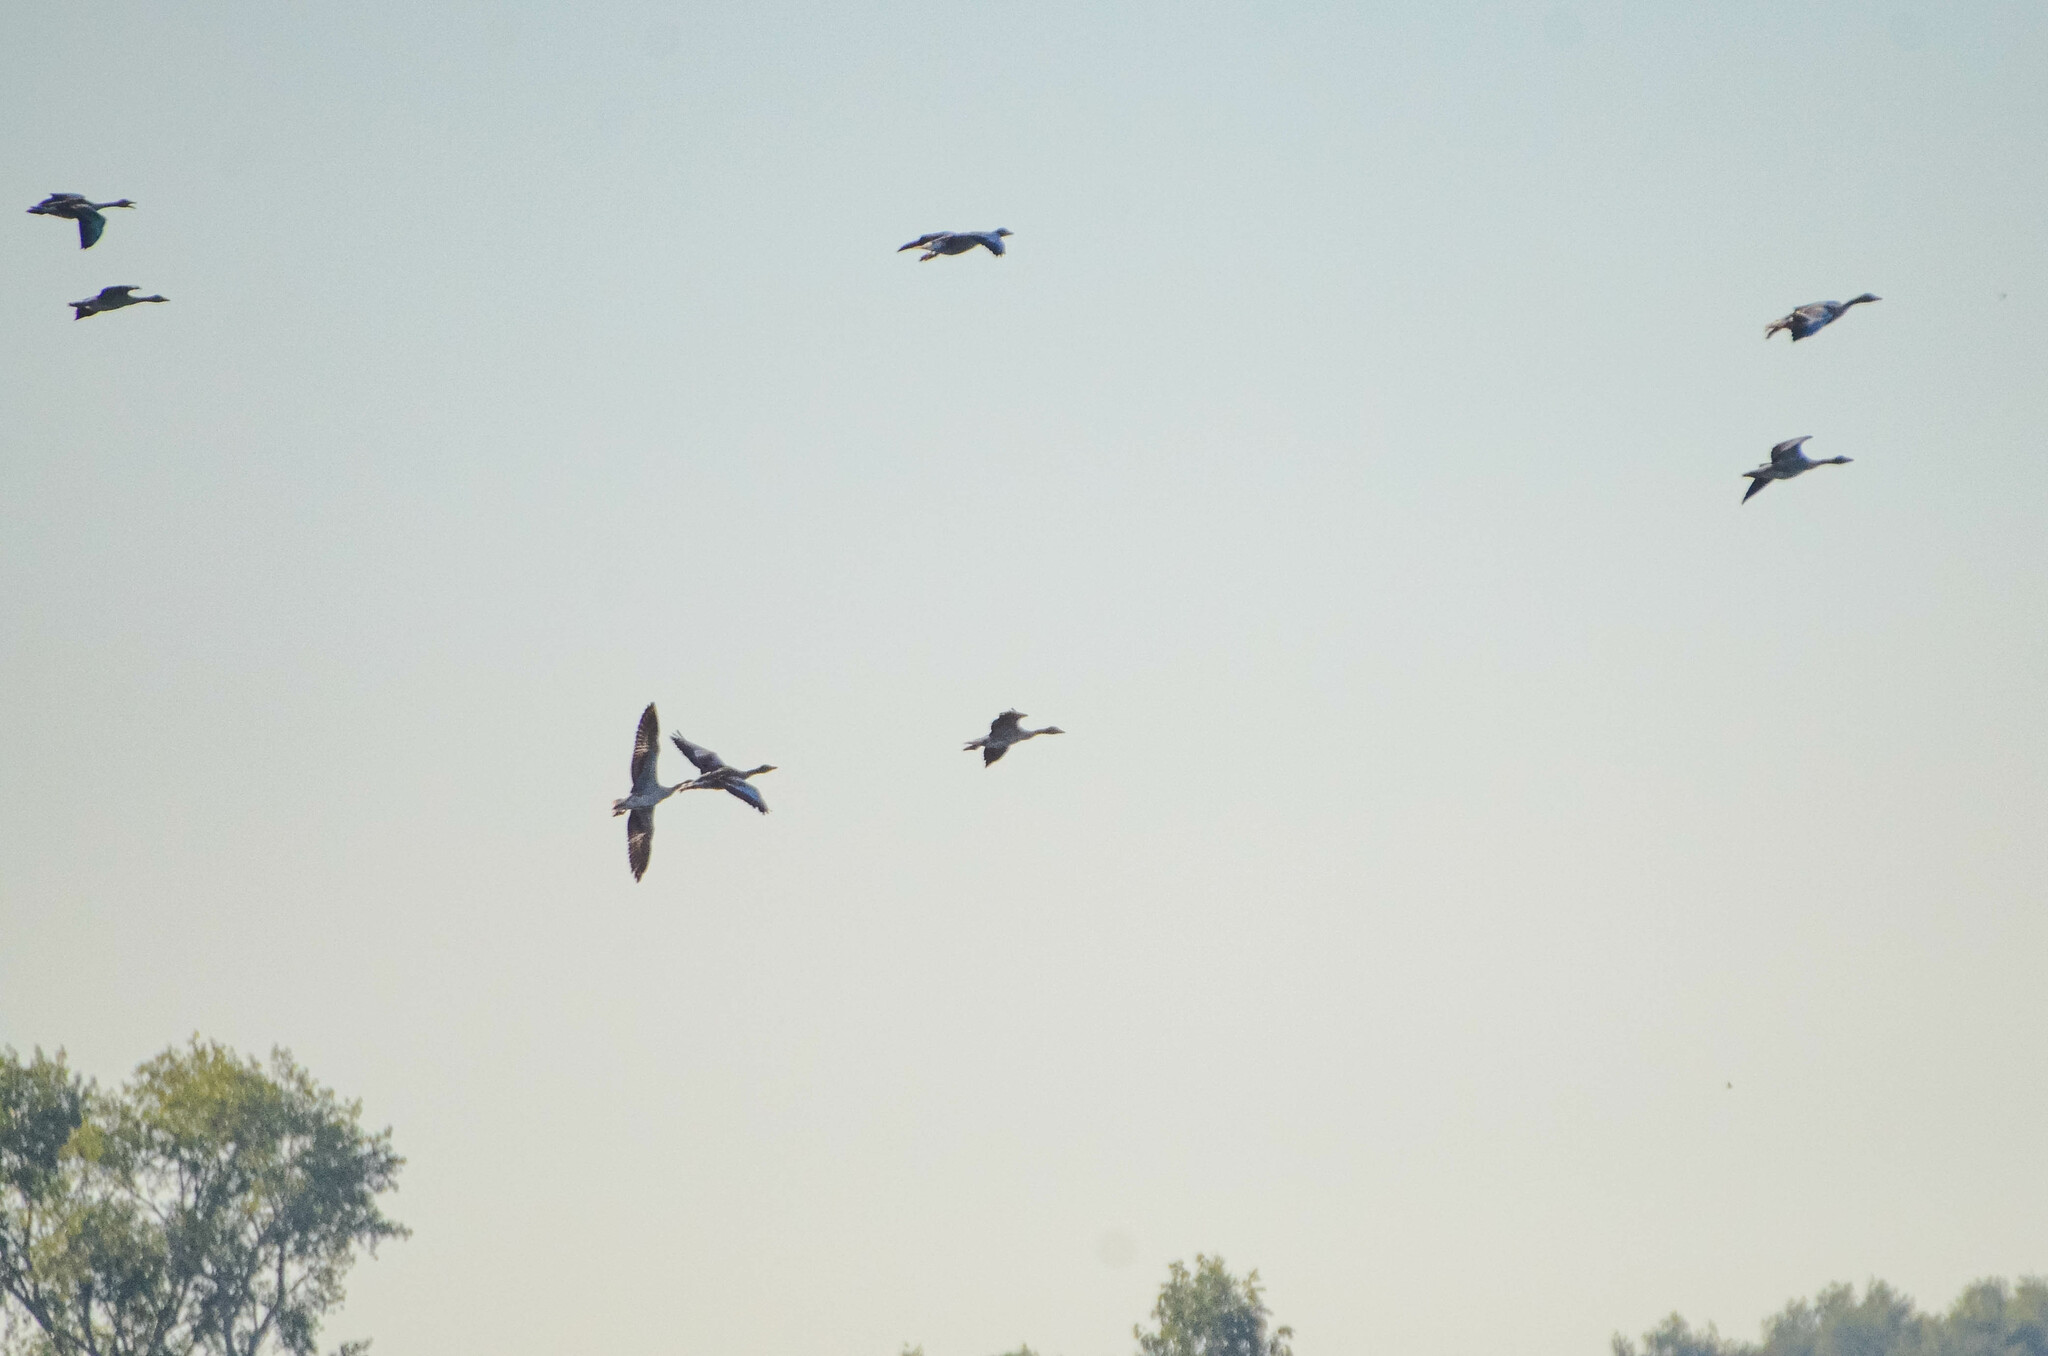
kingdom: Animalia
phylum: Chordata
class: Aves
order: Anseriformes
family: Anatidae
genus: Anser
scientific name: Anser anser
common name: Greylag goose
